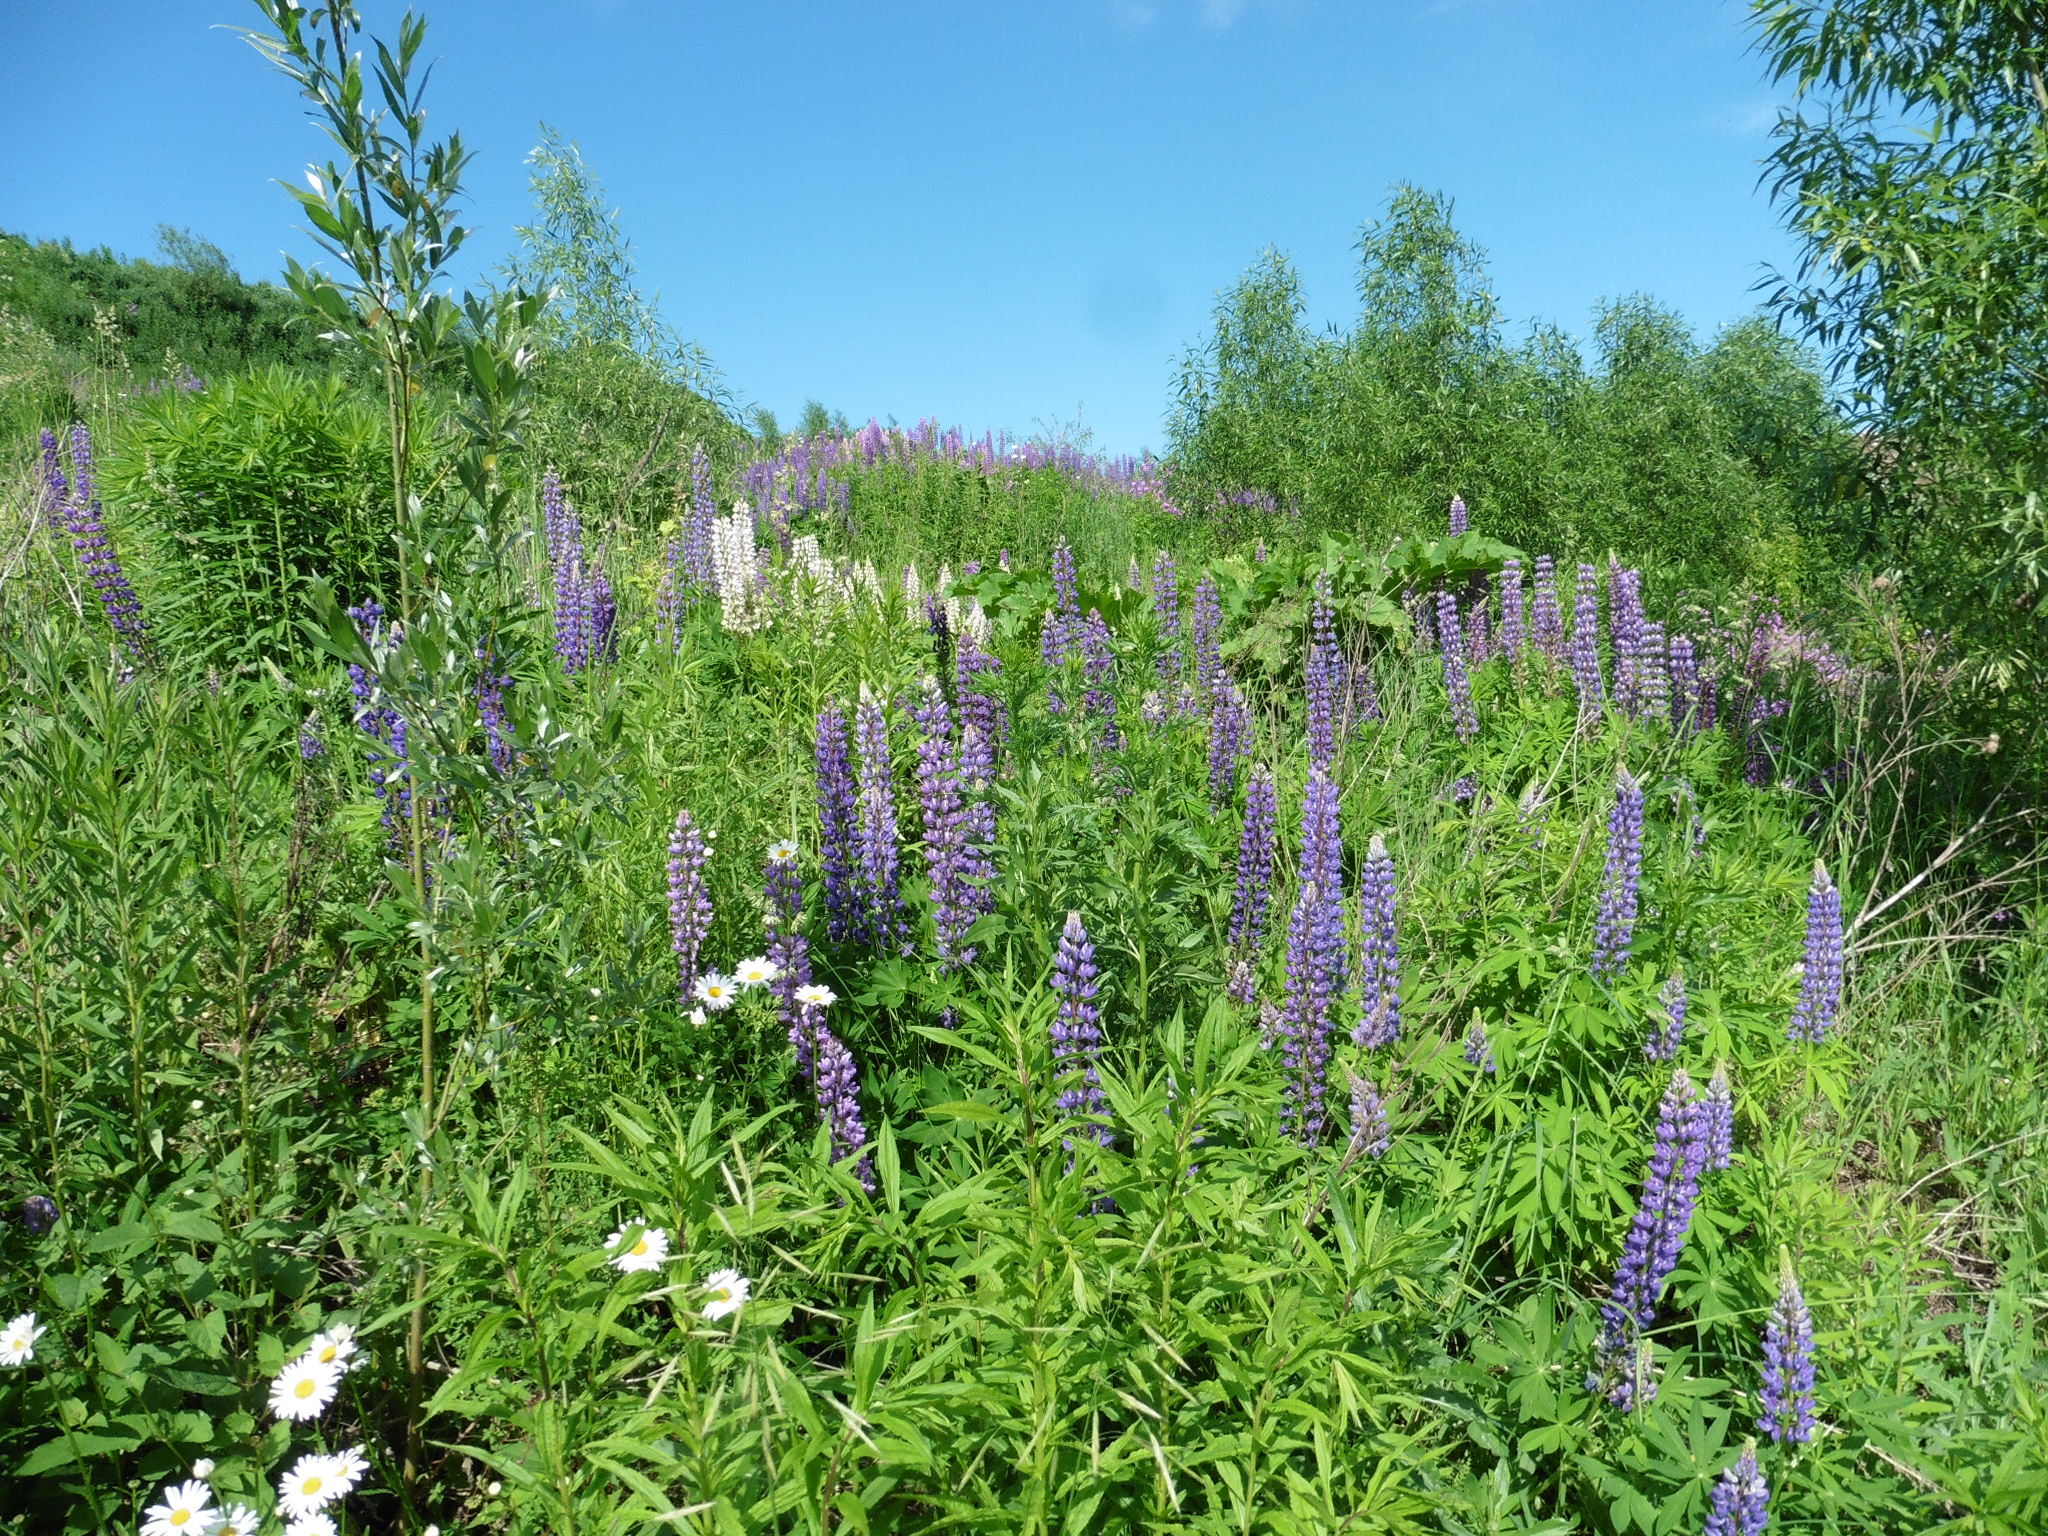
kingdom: Plantae
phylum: Tracheophyta
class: Magnoliopsida
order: Fabales
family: Fabaceae
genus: Lupinus
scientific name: Lupinus polyphyllus
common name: Garden lupin
